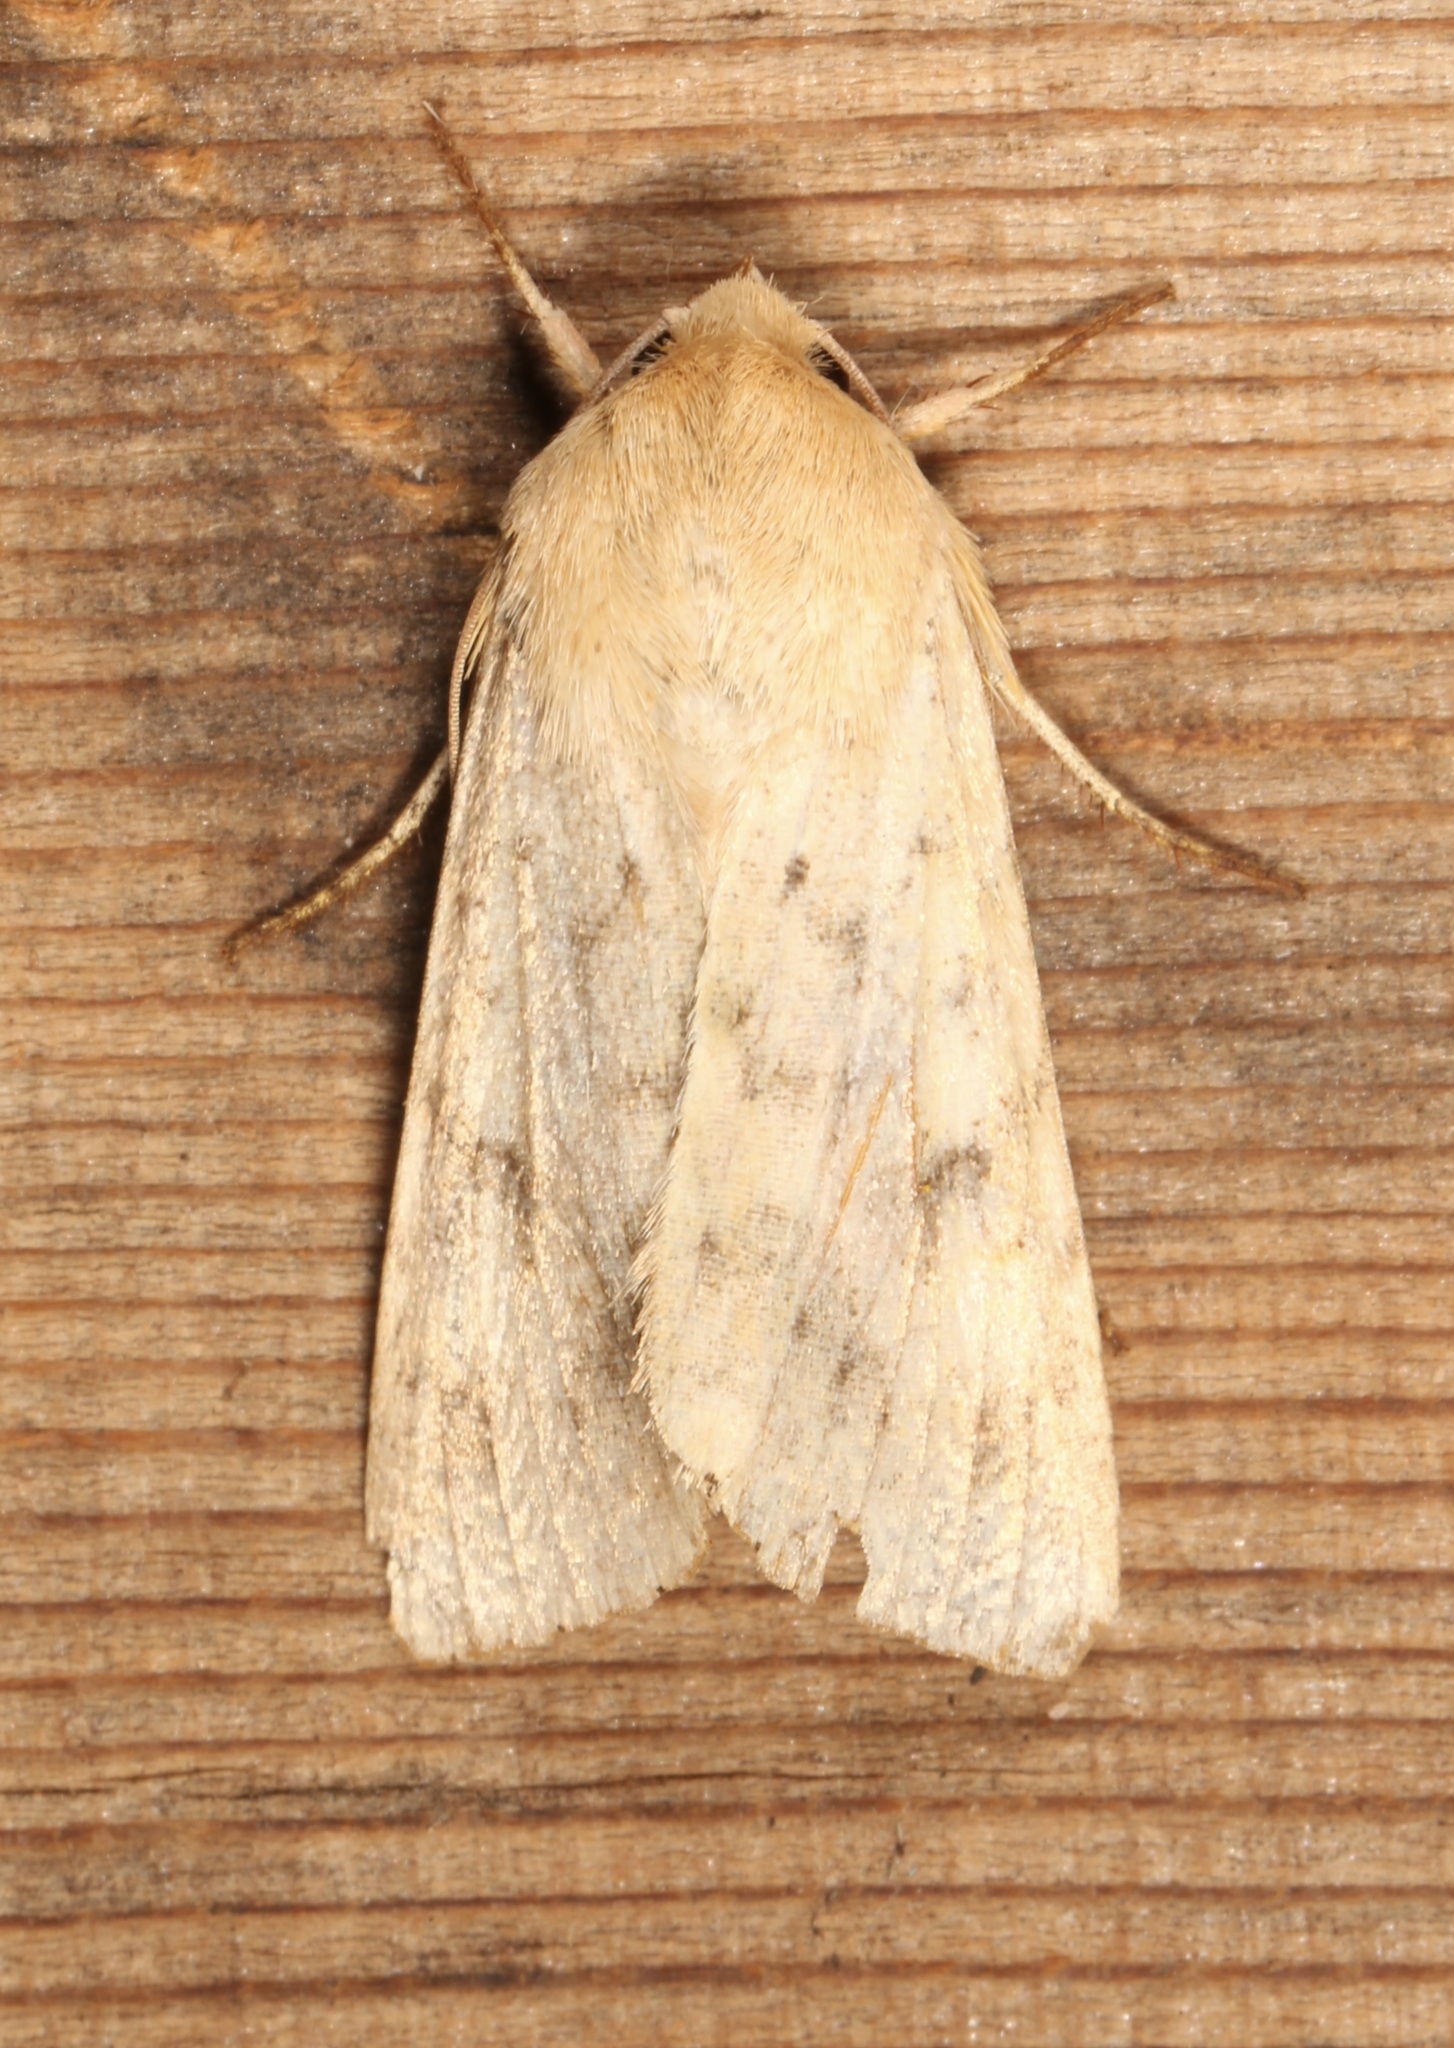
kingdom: Animalia
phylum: Arthropoda
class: Insecta
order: Lepidoptera
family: Noctuidae
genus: Helicoverpa
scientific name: Helicoverpa zea
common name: Bollworm
